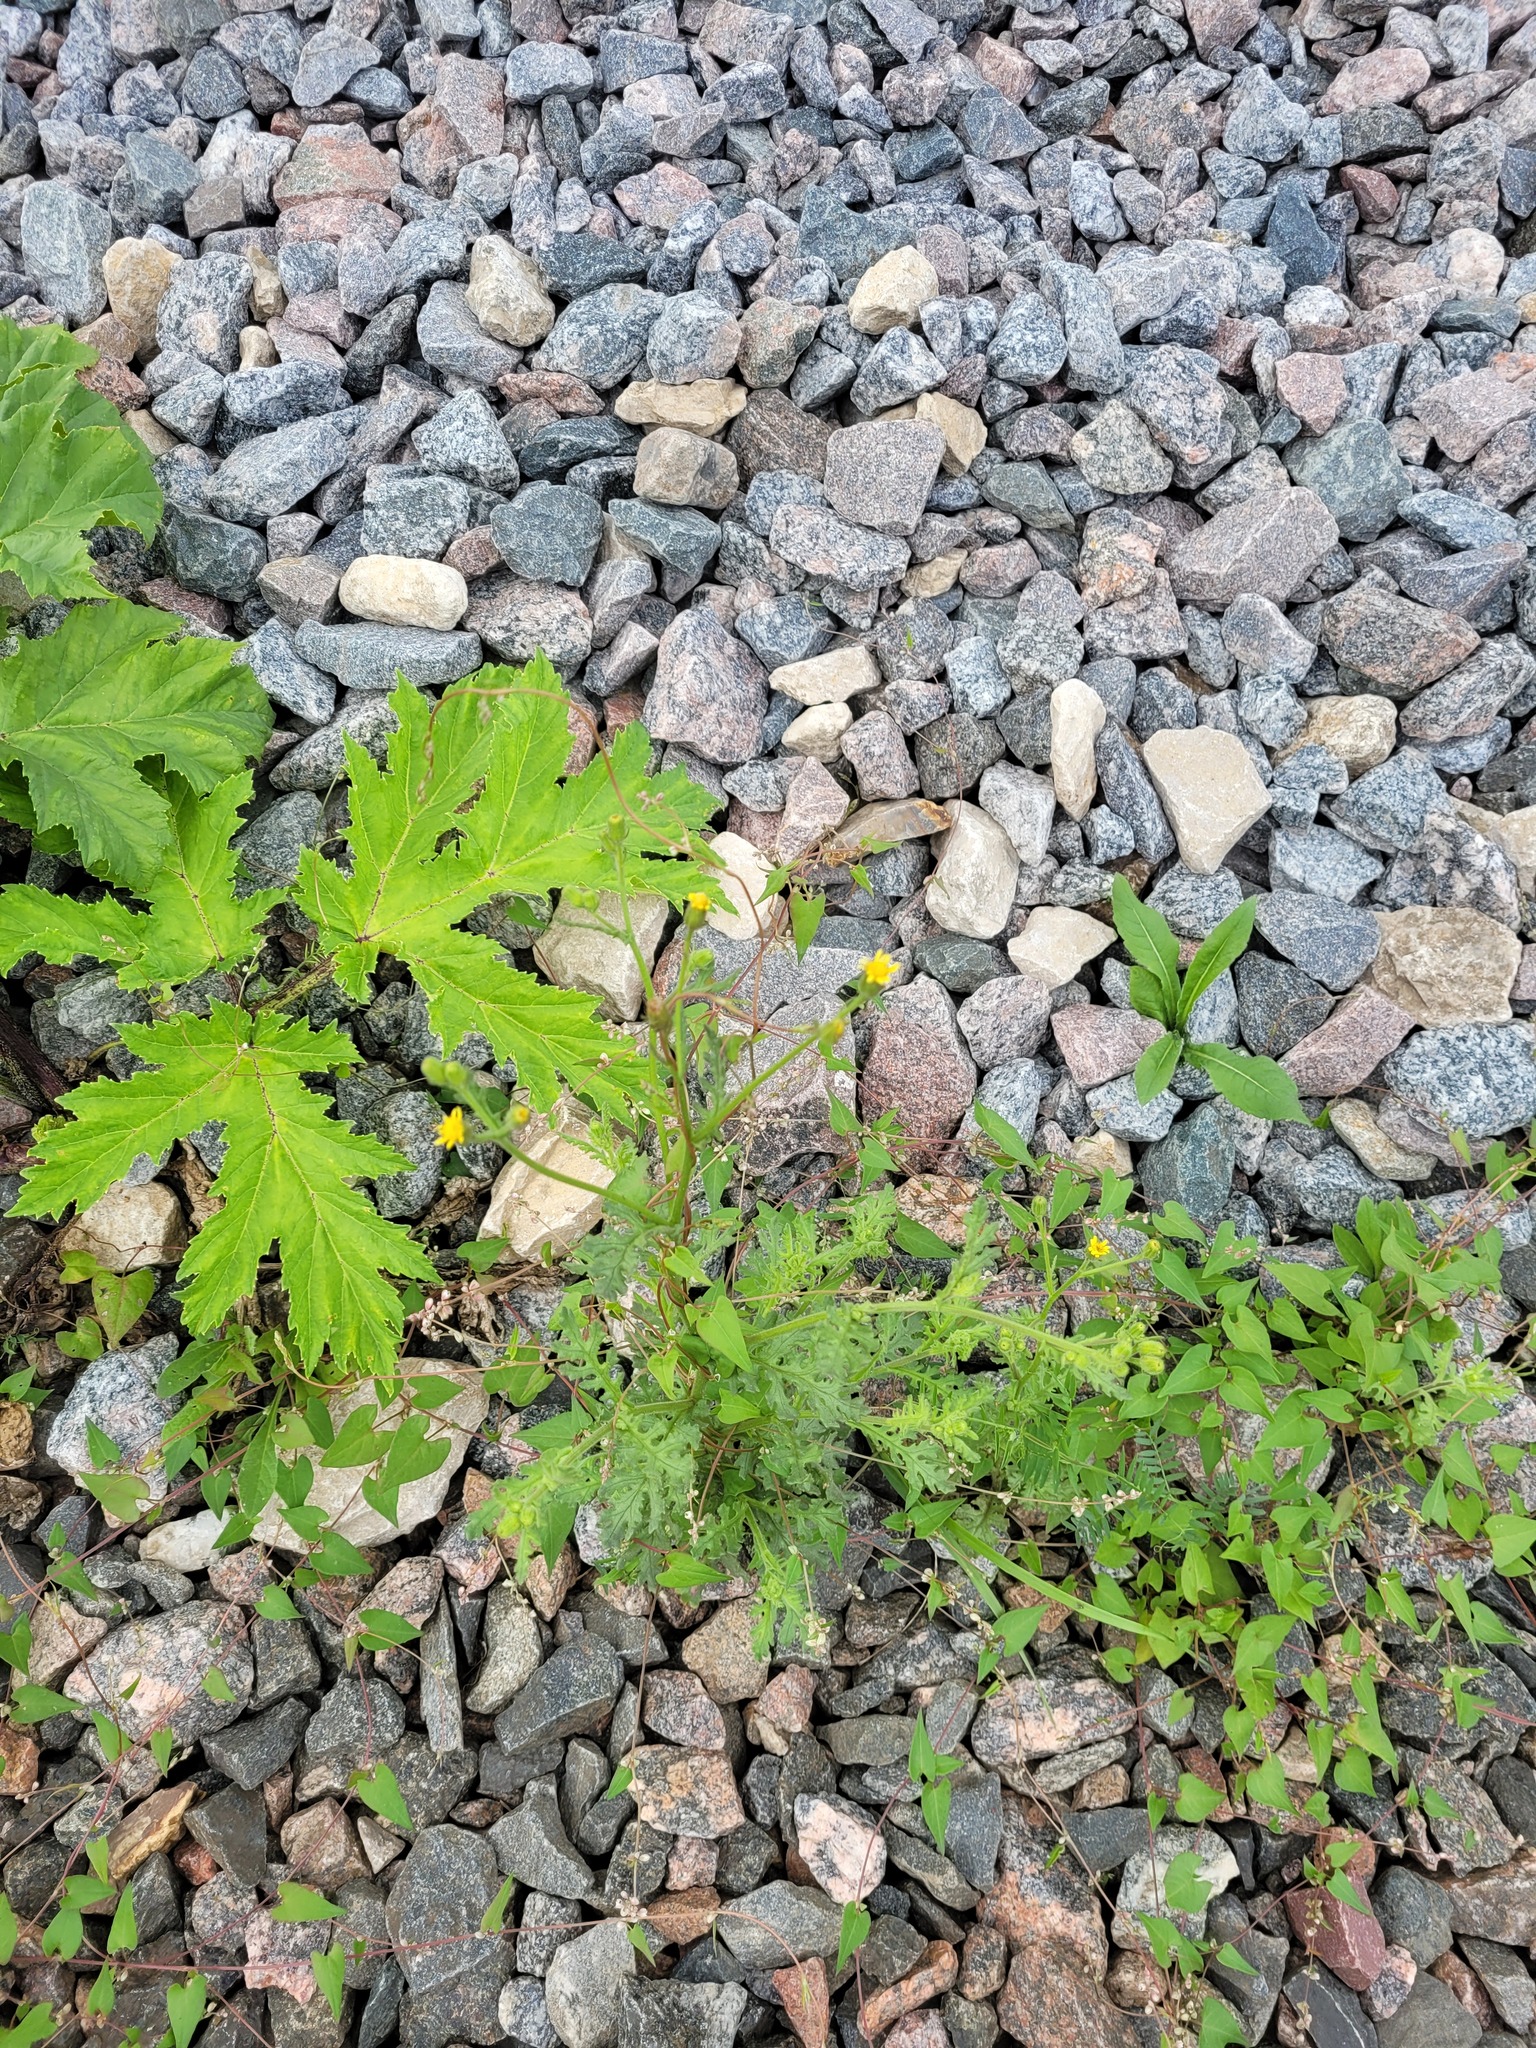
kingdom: Plantae
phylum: Tracheophyta
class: Magnoliopsida
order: Asterales
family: Asteraceae
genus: Senecio
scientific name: Senecio viscosus
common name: Sticky groundsel
